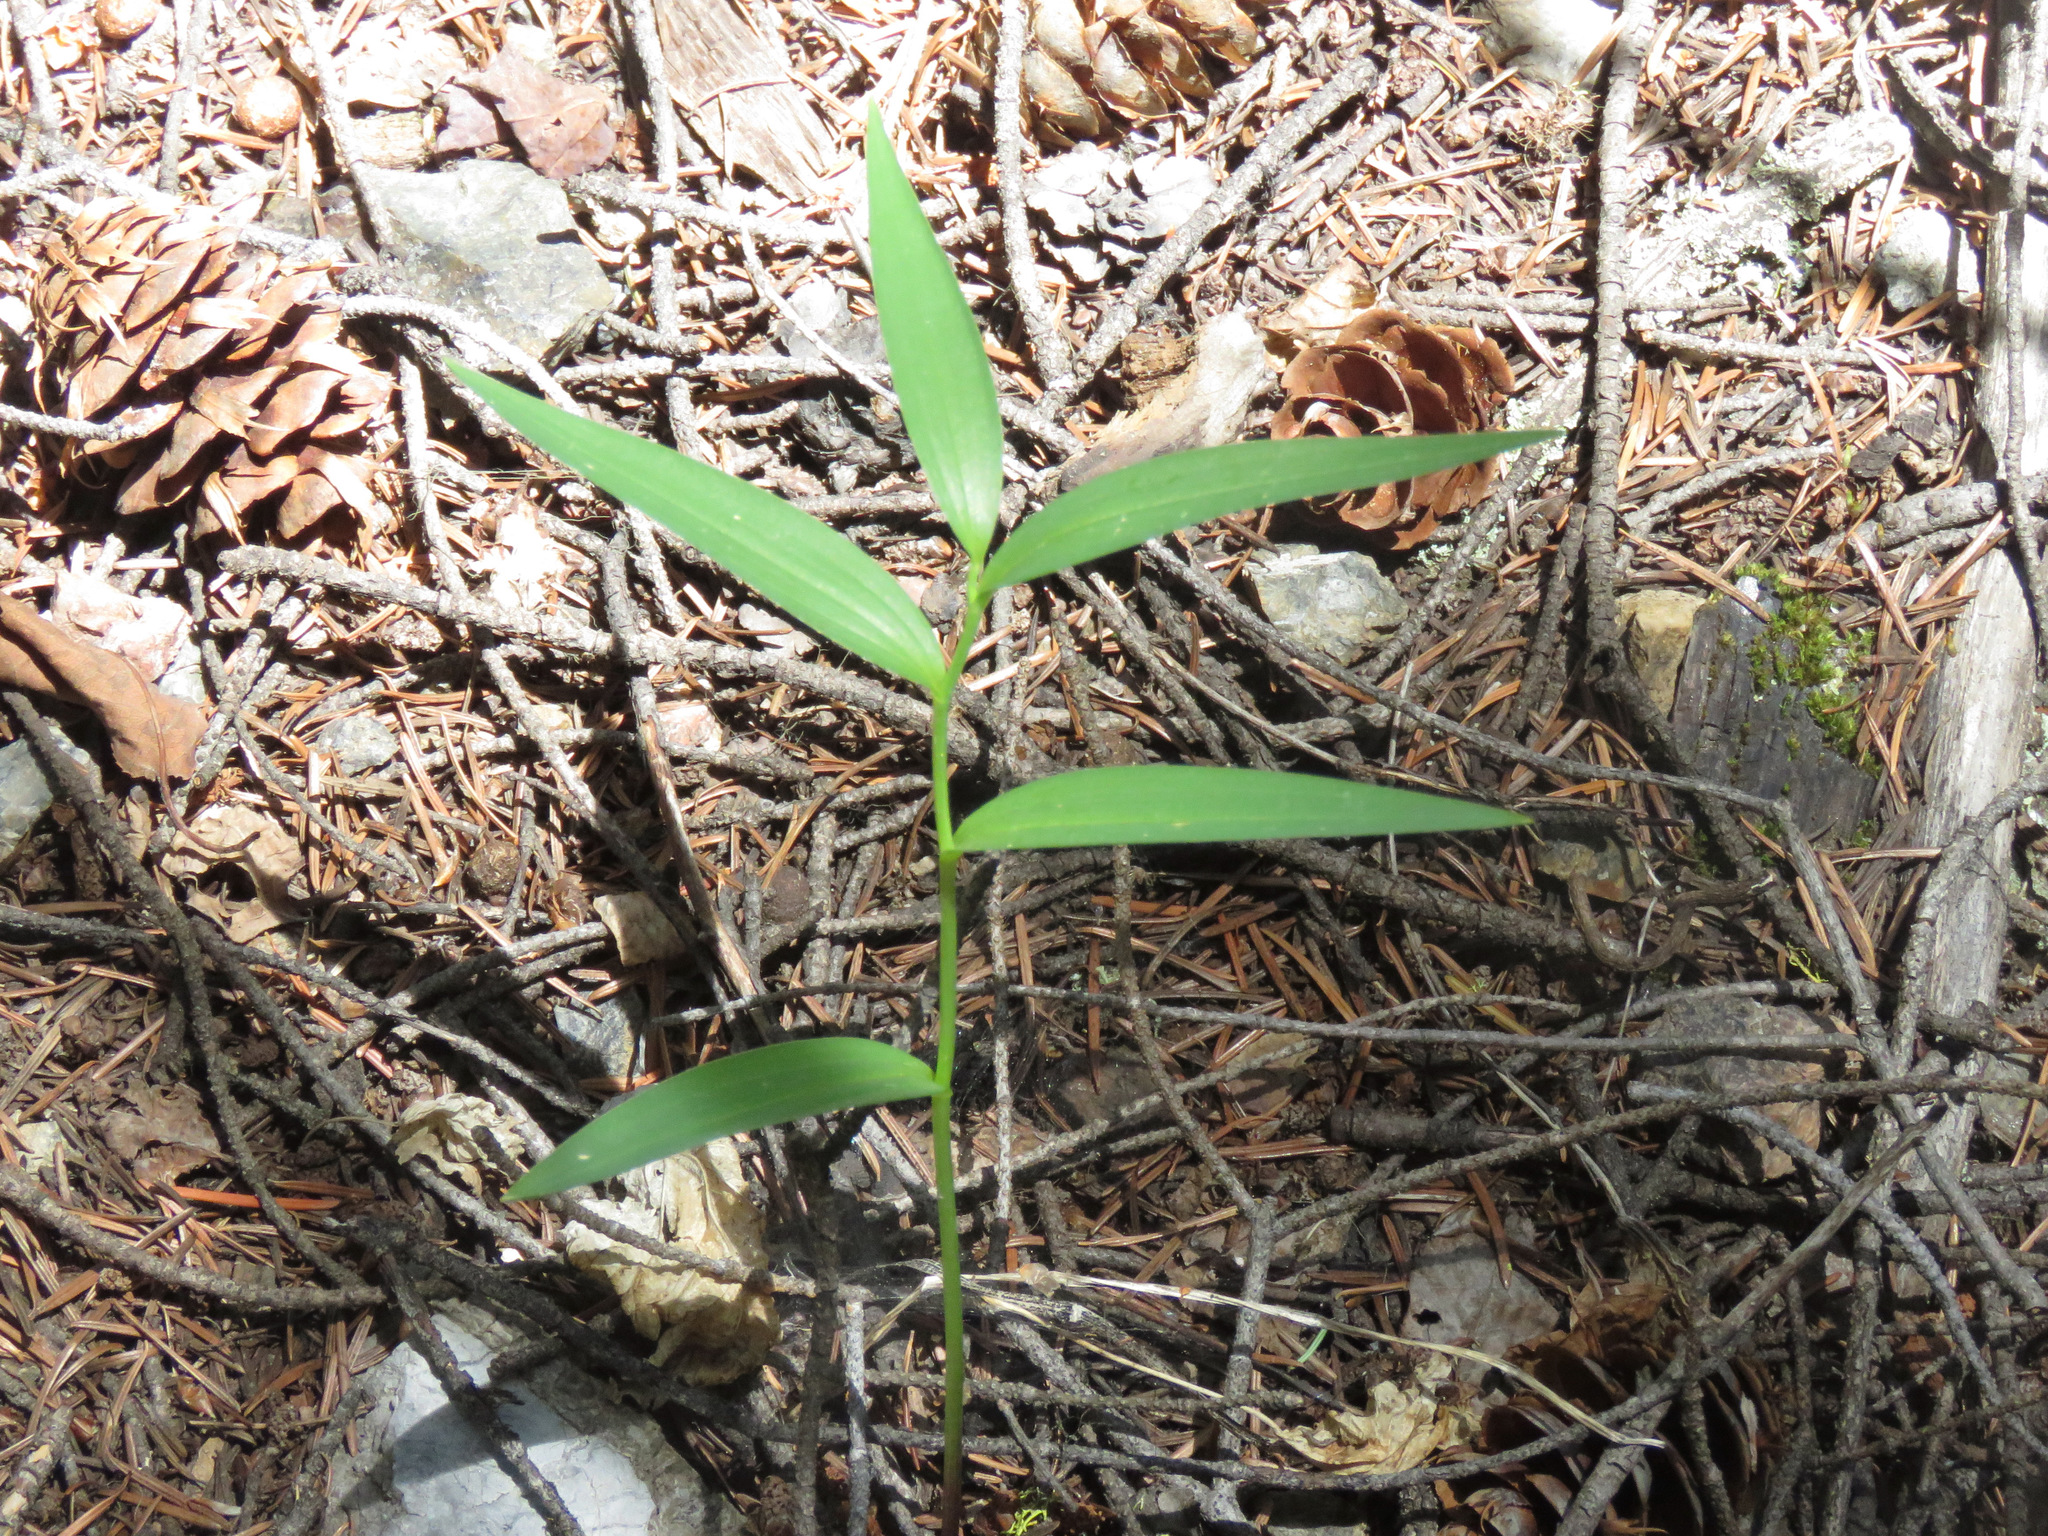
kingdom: Plantae
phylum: Tracheophyta
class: Liliopsida
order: Asparagales
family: Asparagaceae
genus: Maianthemum
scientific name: Maianthemum stellatum
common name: Little false solomon's seal
